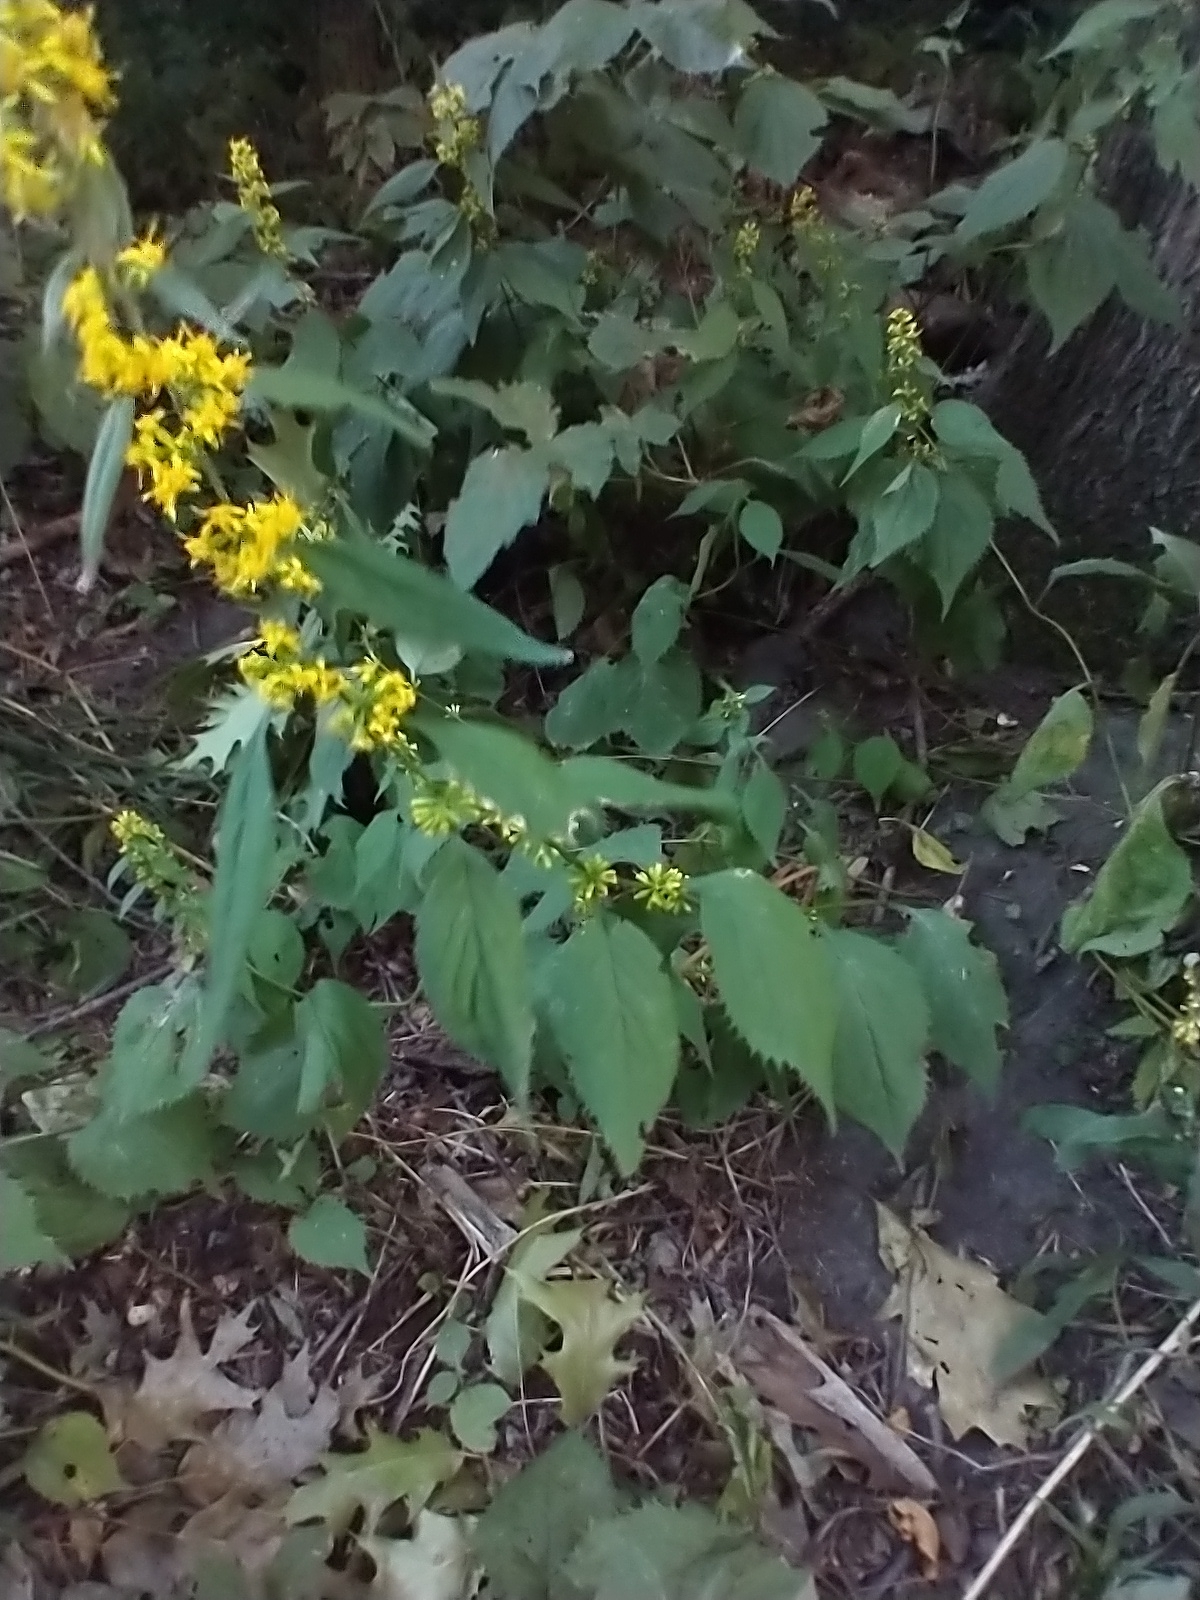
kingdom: Plantae
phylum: Tracheophyta
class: Magnoliopsida
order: Asterales
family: Asteraceae
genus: Solidago
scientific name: Solidago flexicaulis
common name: Zig-zag goldenrod
